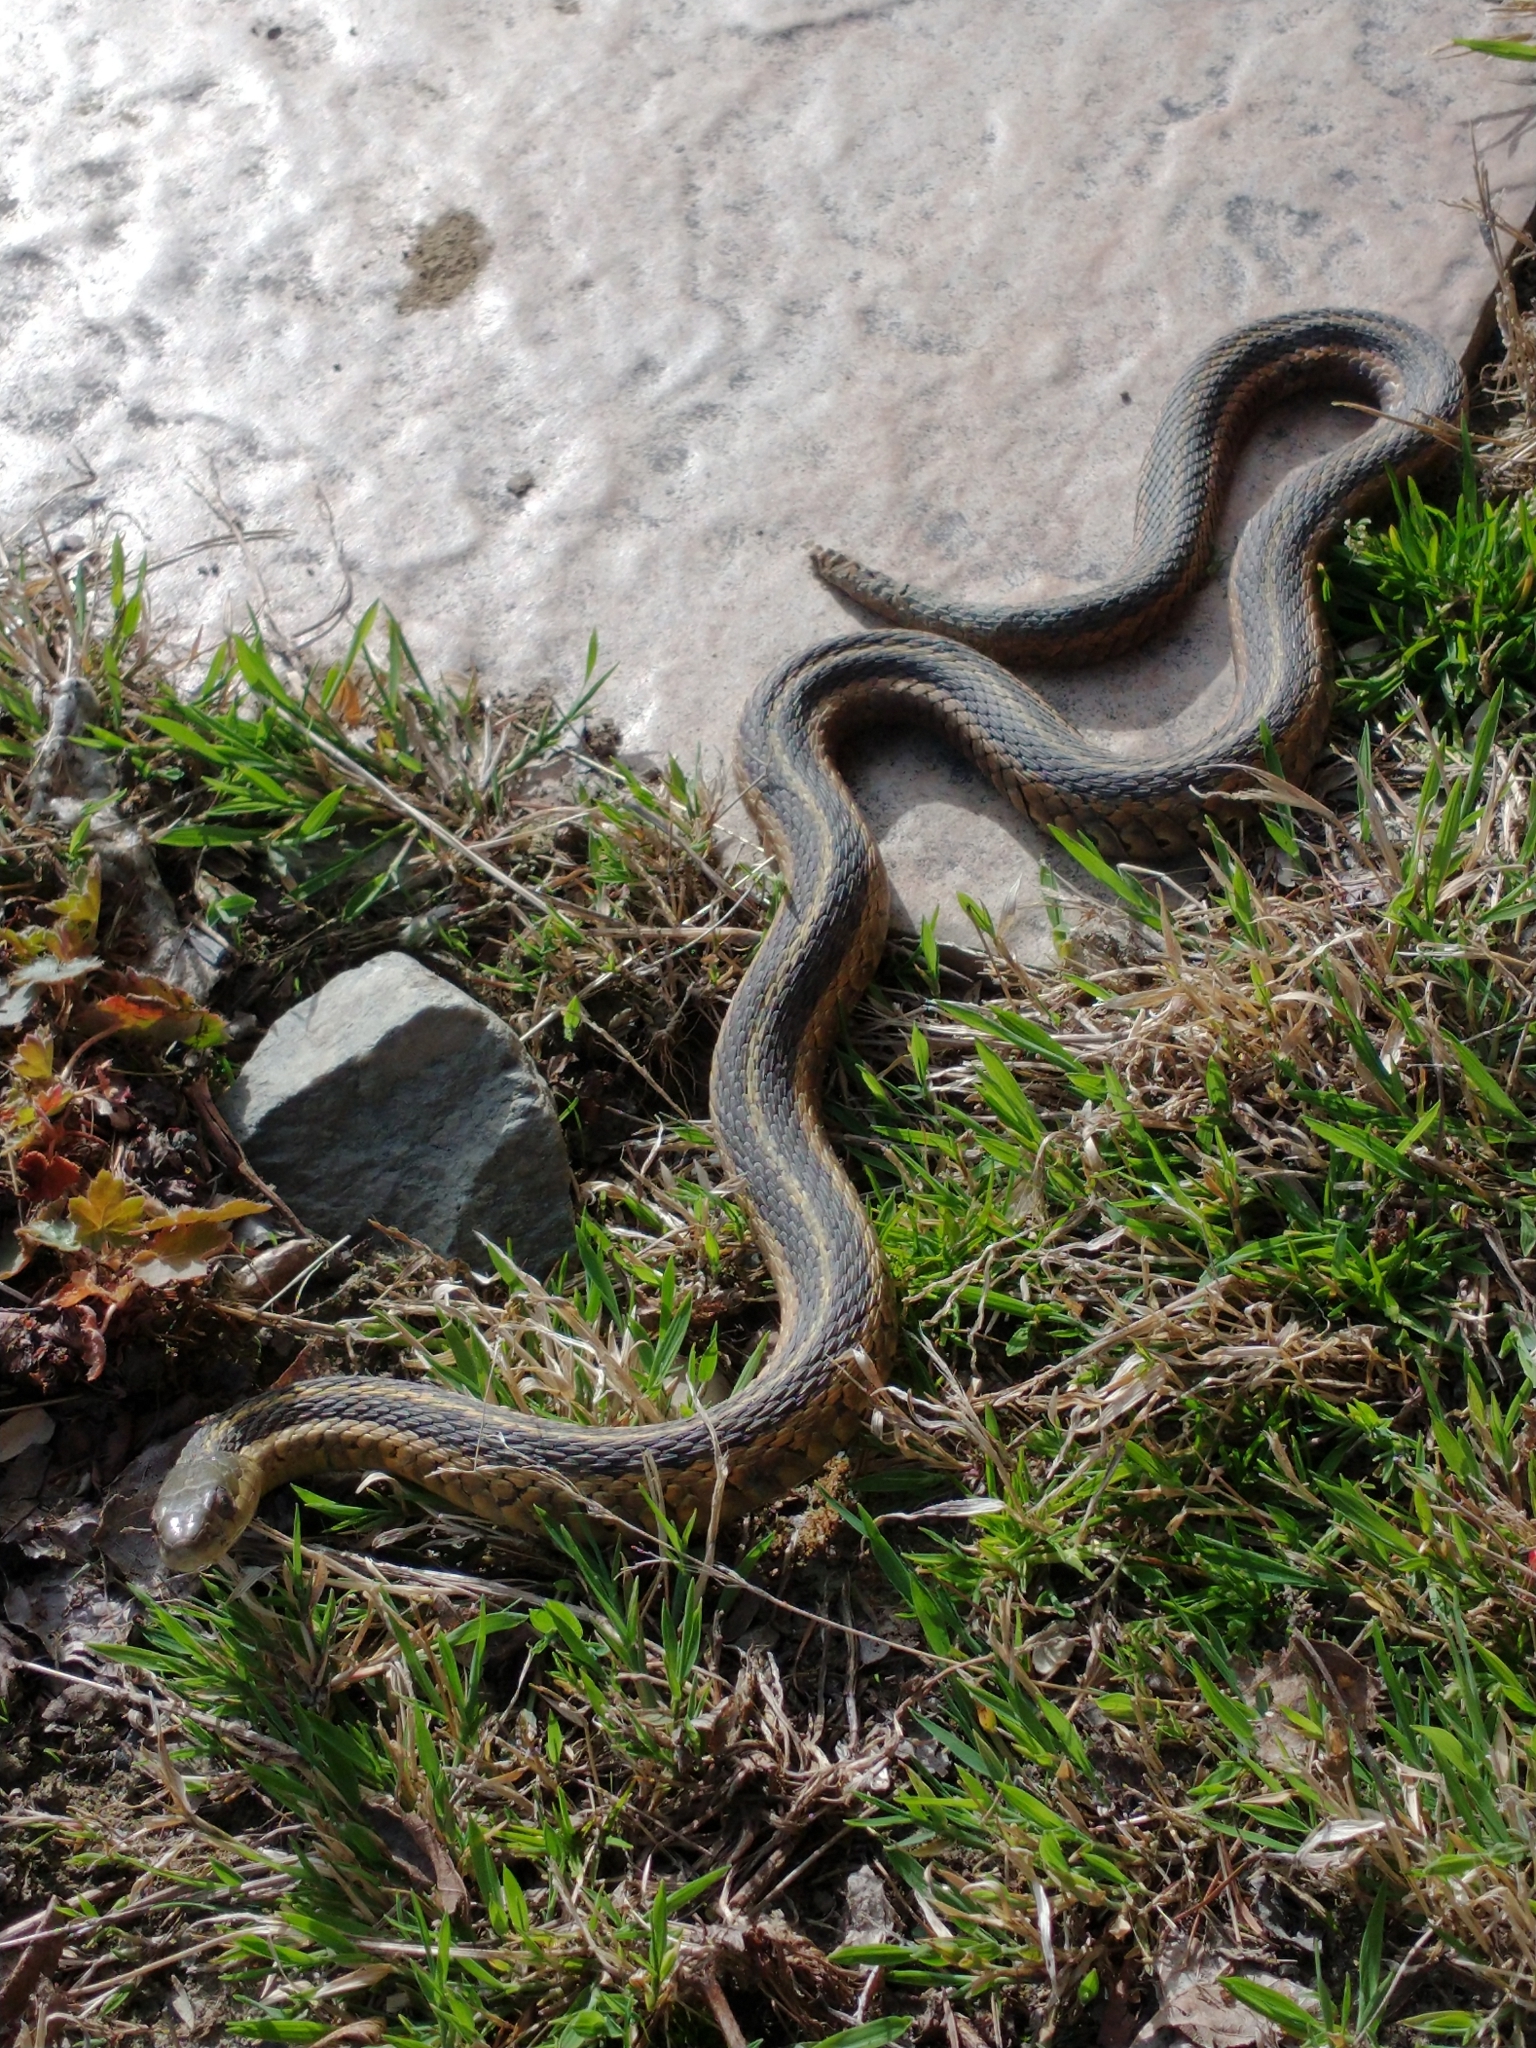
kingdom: Animalia
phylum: Chordata
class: Squamata
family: Colubridae
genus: Thamnophis
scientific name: Thamnophis sirtalis
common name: Common garter snake
